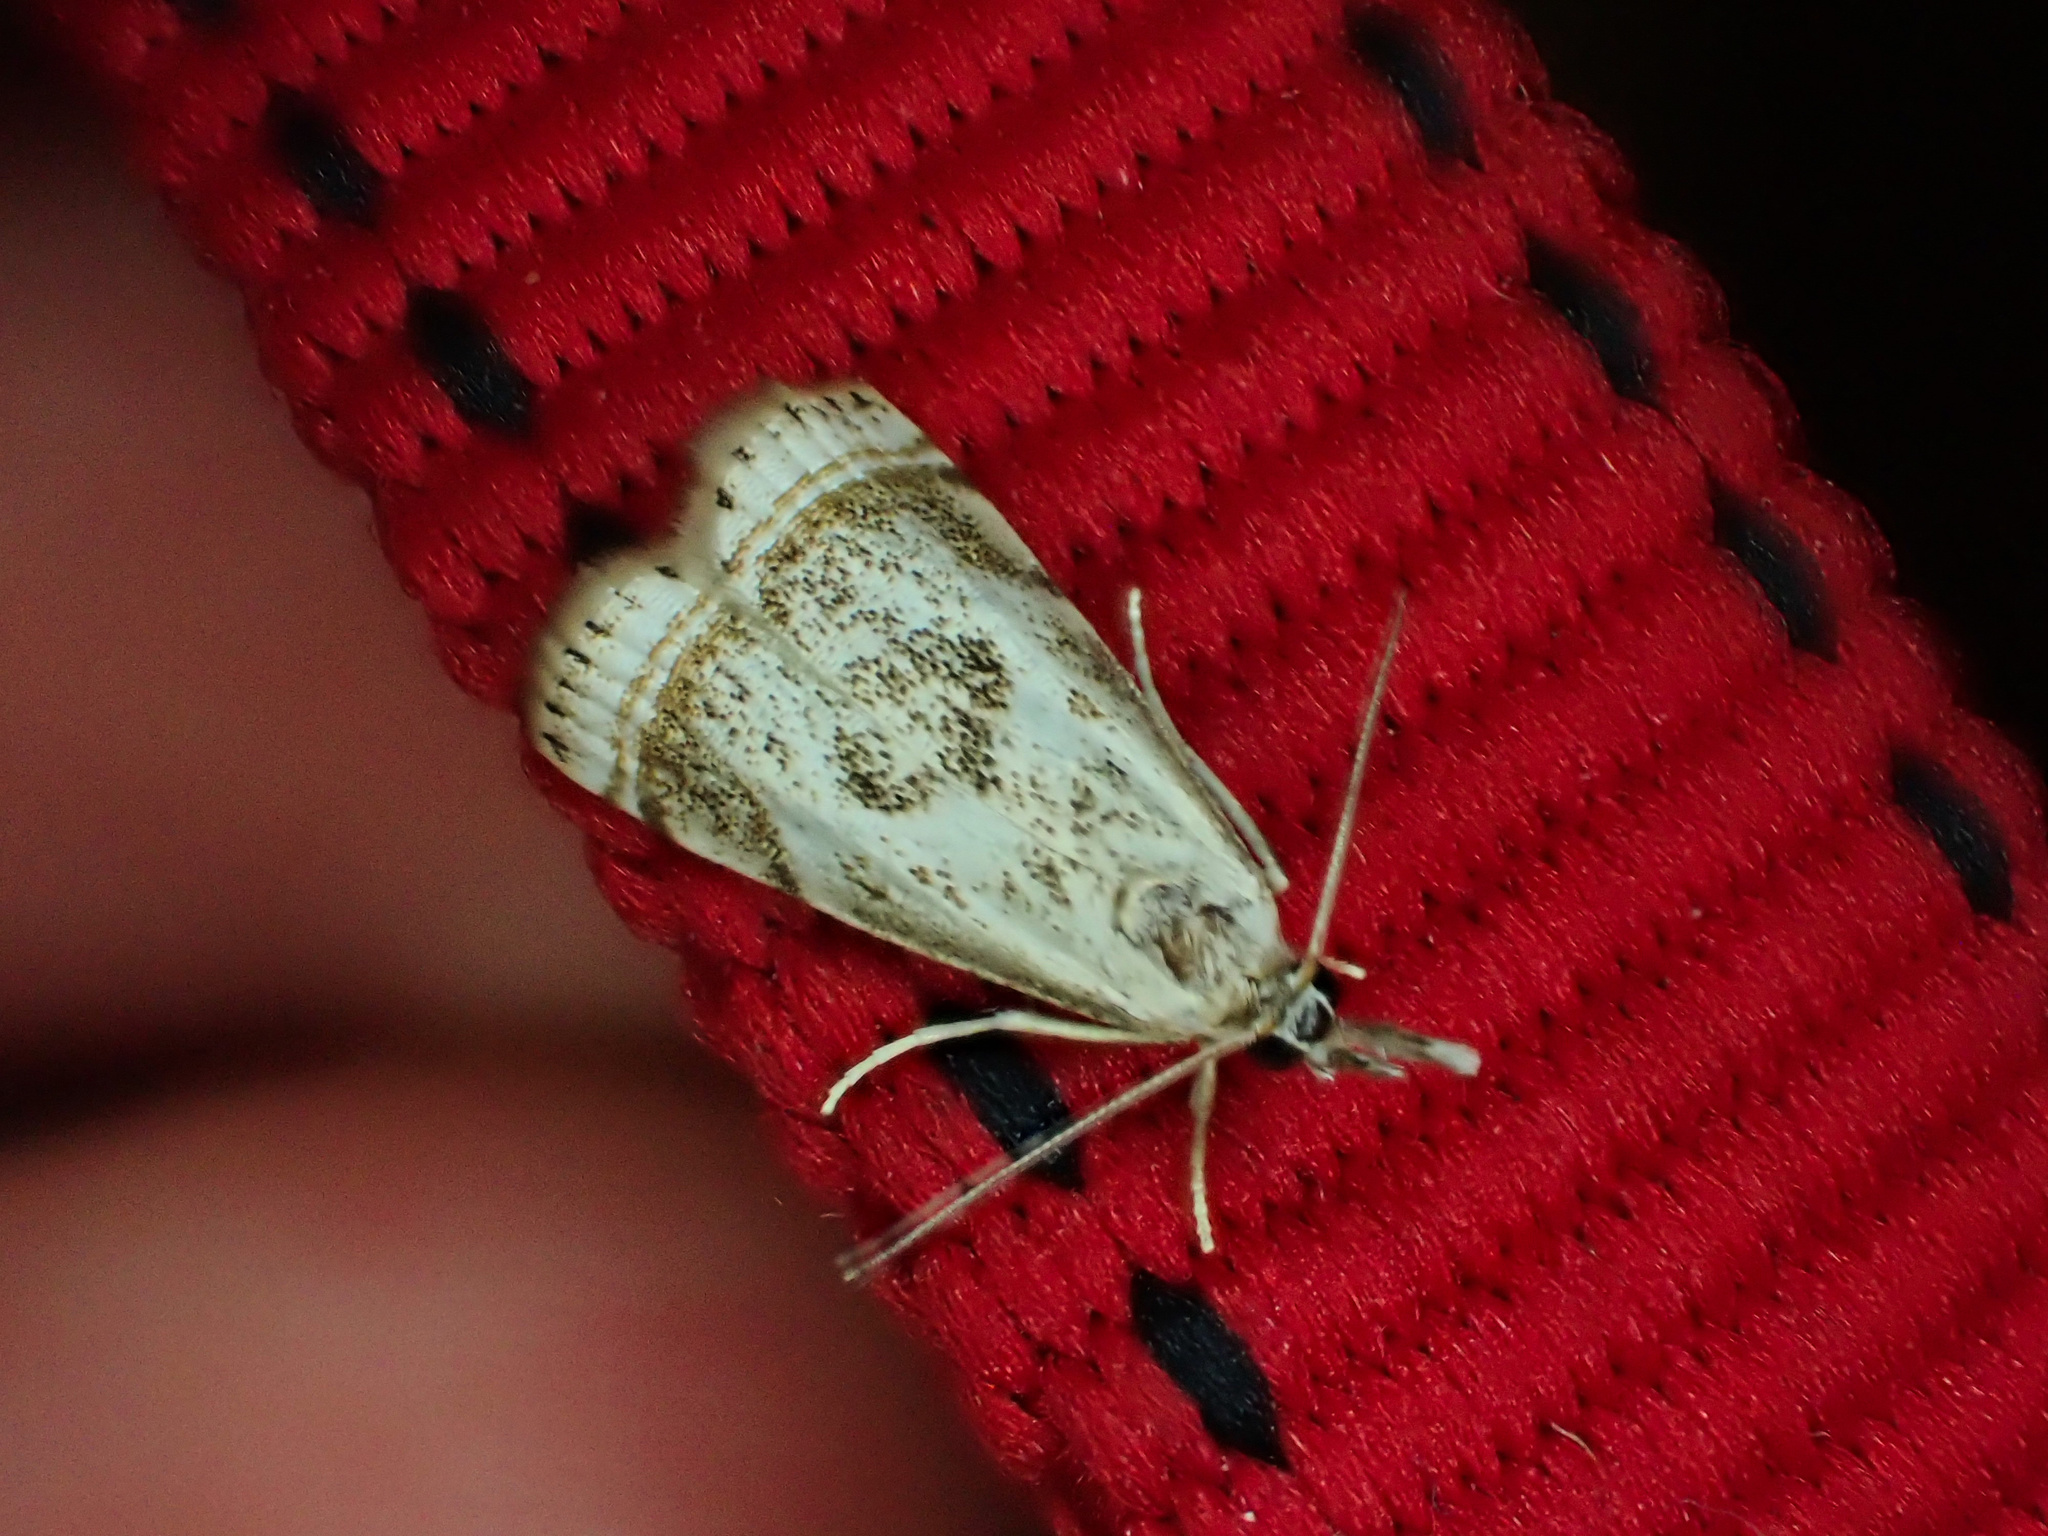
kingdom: Animalia
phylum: Arthropoda
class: Insecta
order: Lepidoptera
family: Crambidae
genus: Microcrambus
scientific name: Microcrambus elegans
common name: Elegant grass-veneer
